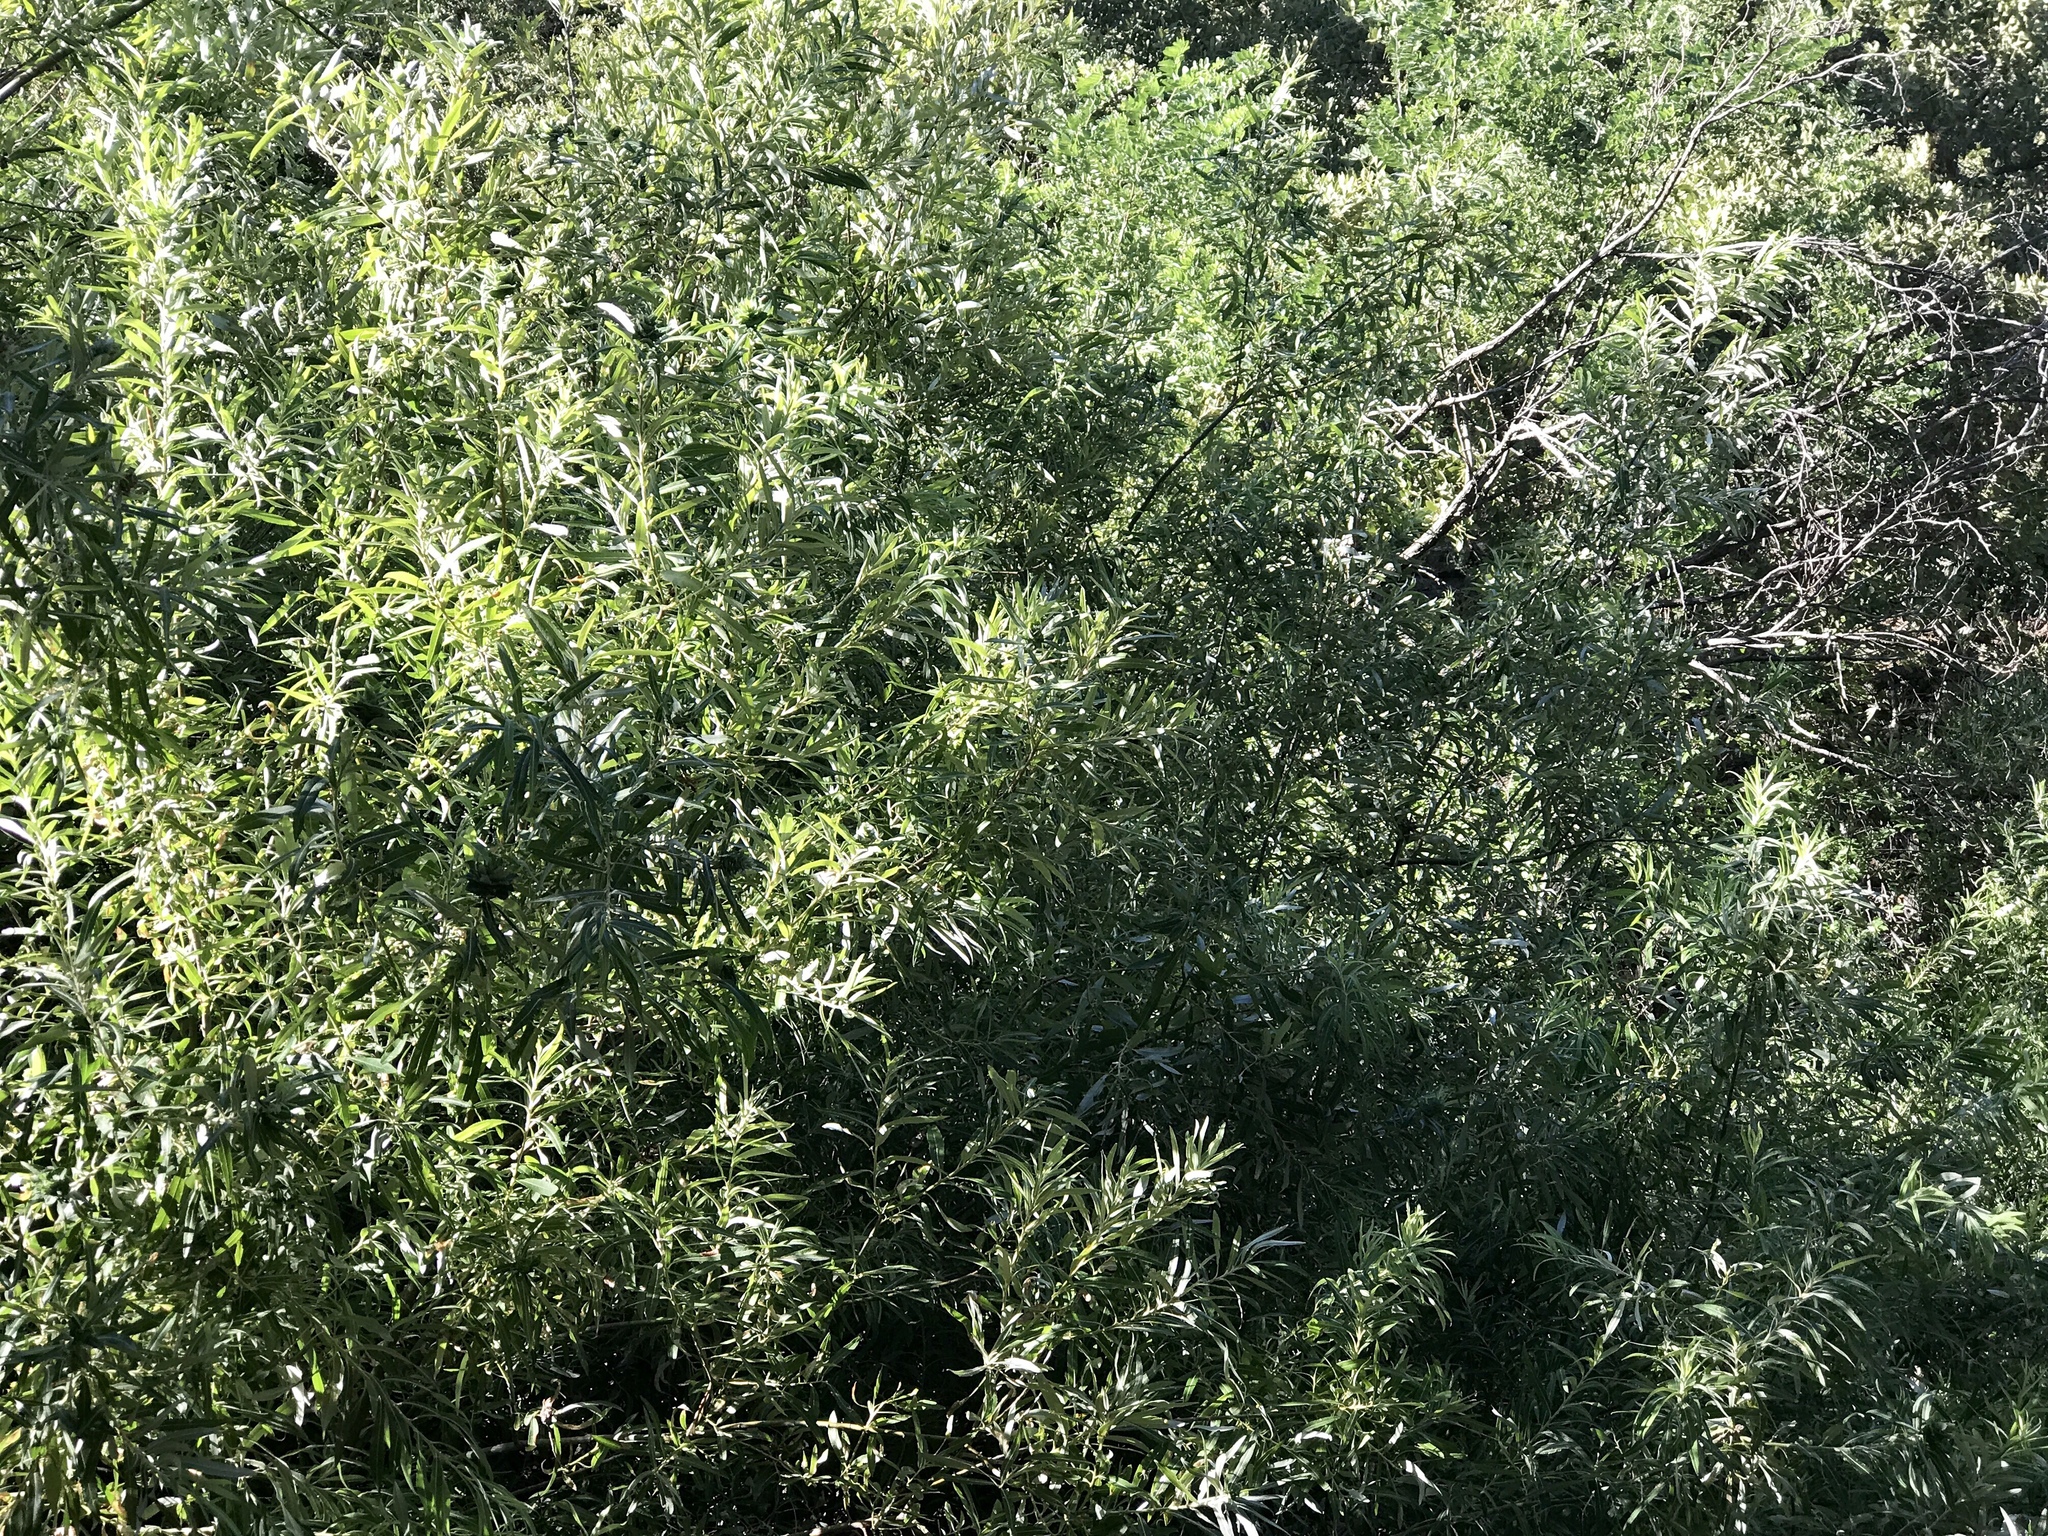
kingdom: Plantae
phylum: Tracheophyta
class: Magnoliopsida
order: Malpighiales
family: Salicaceae
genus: Salix
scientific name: Salix exigua
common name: Coyote willow
